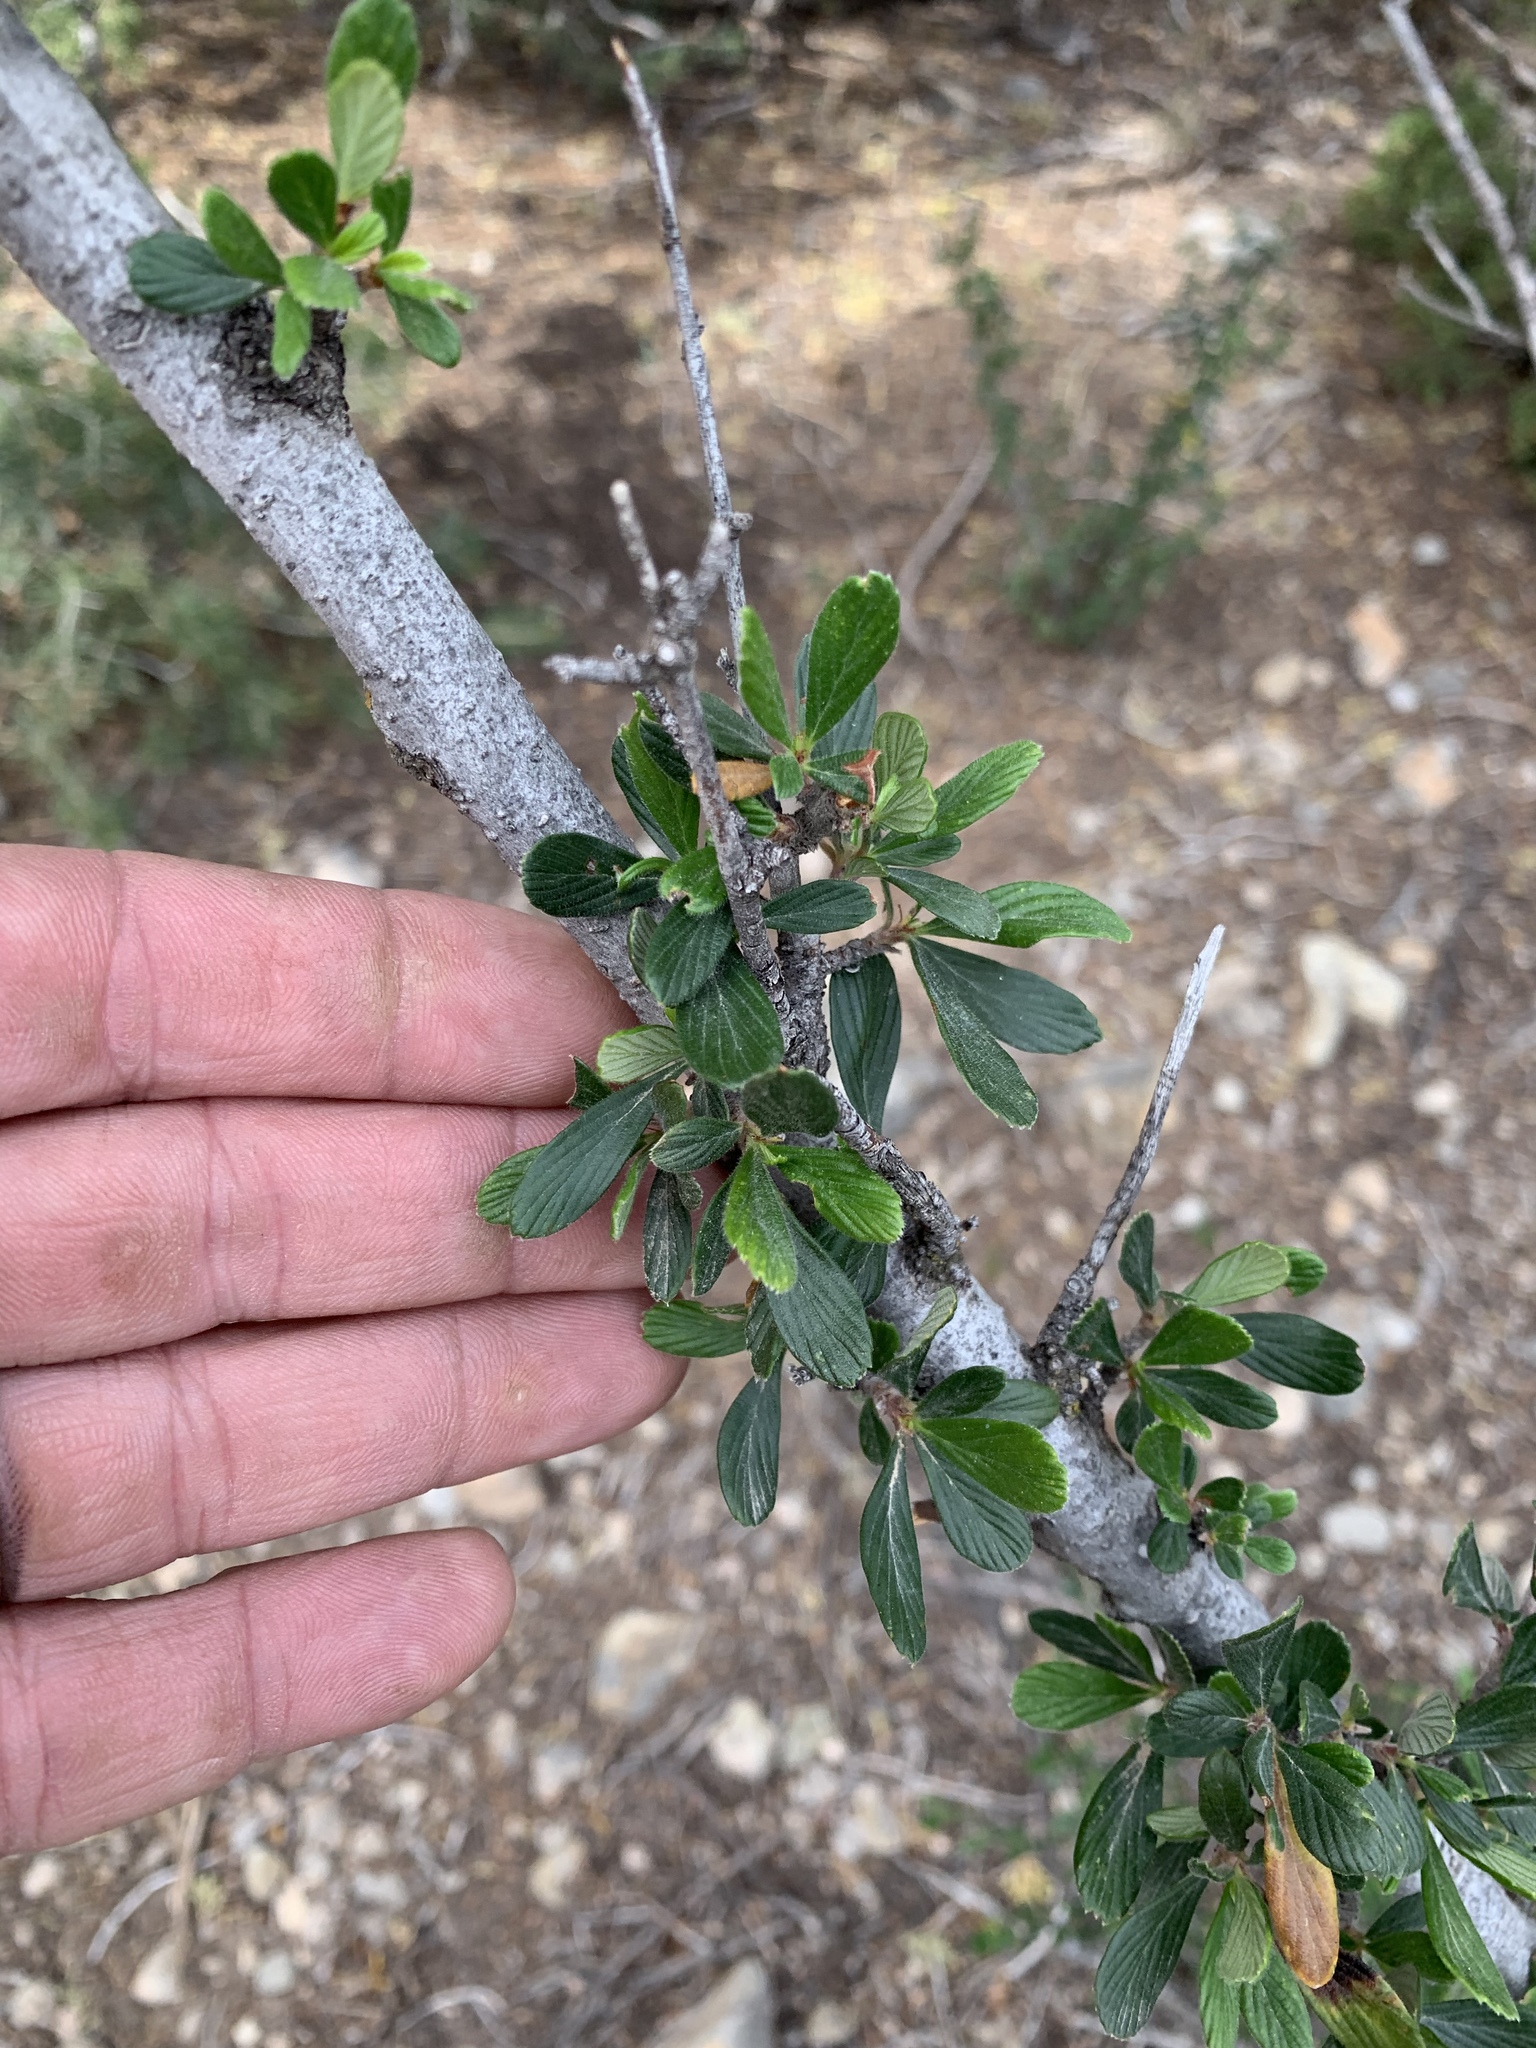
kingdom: Plantae
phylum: Tracheophyta
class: Magnoliopsida
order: Rosales
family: Rosaceae
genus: Cercocarpus
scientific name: Cercocarpus breviflorus
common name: Wright's mountain-mahogany
